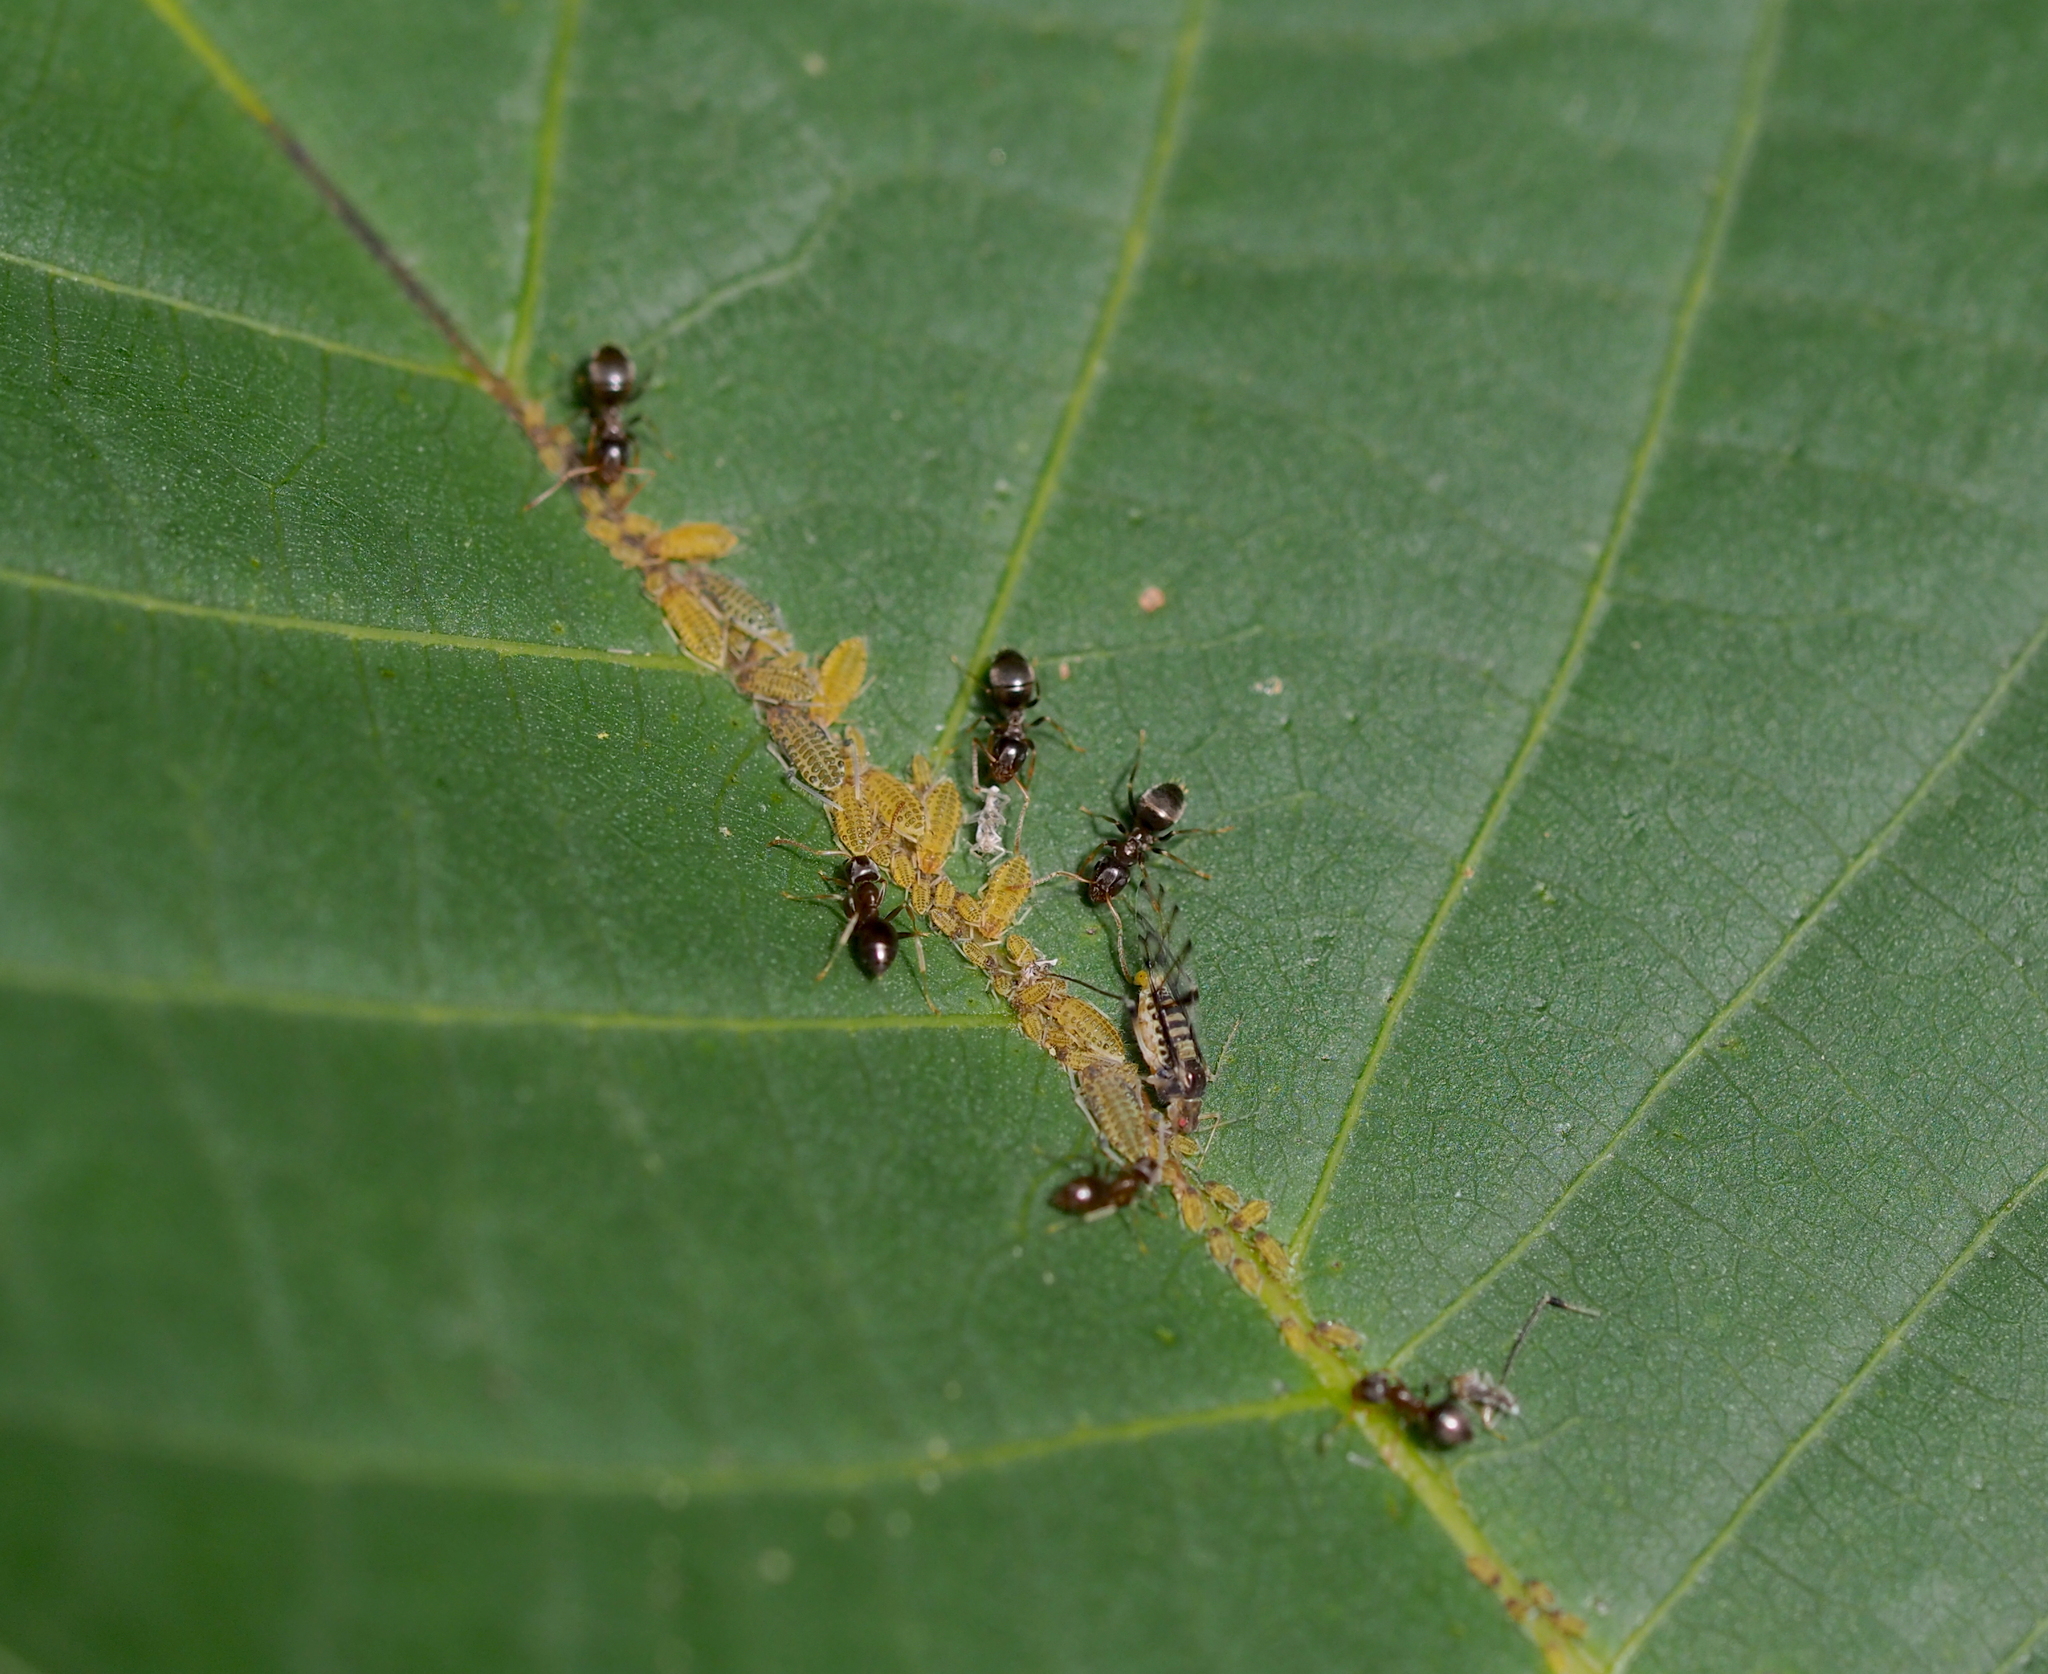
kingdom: Animalia
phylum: Arthropoda
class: Insecta
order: Hemiptera
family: Aphididae
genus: Panaphis
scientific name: Panaphis juglandis
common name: Large walnut aphid
